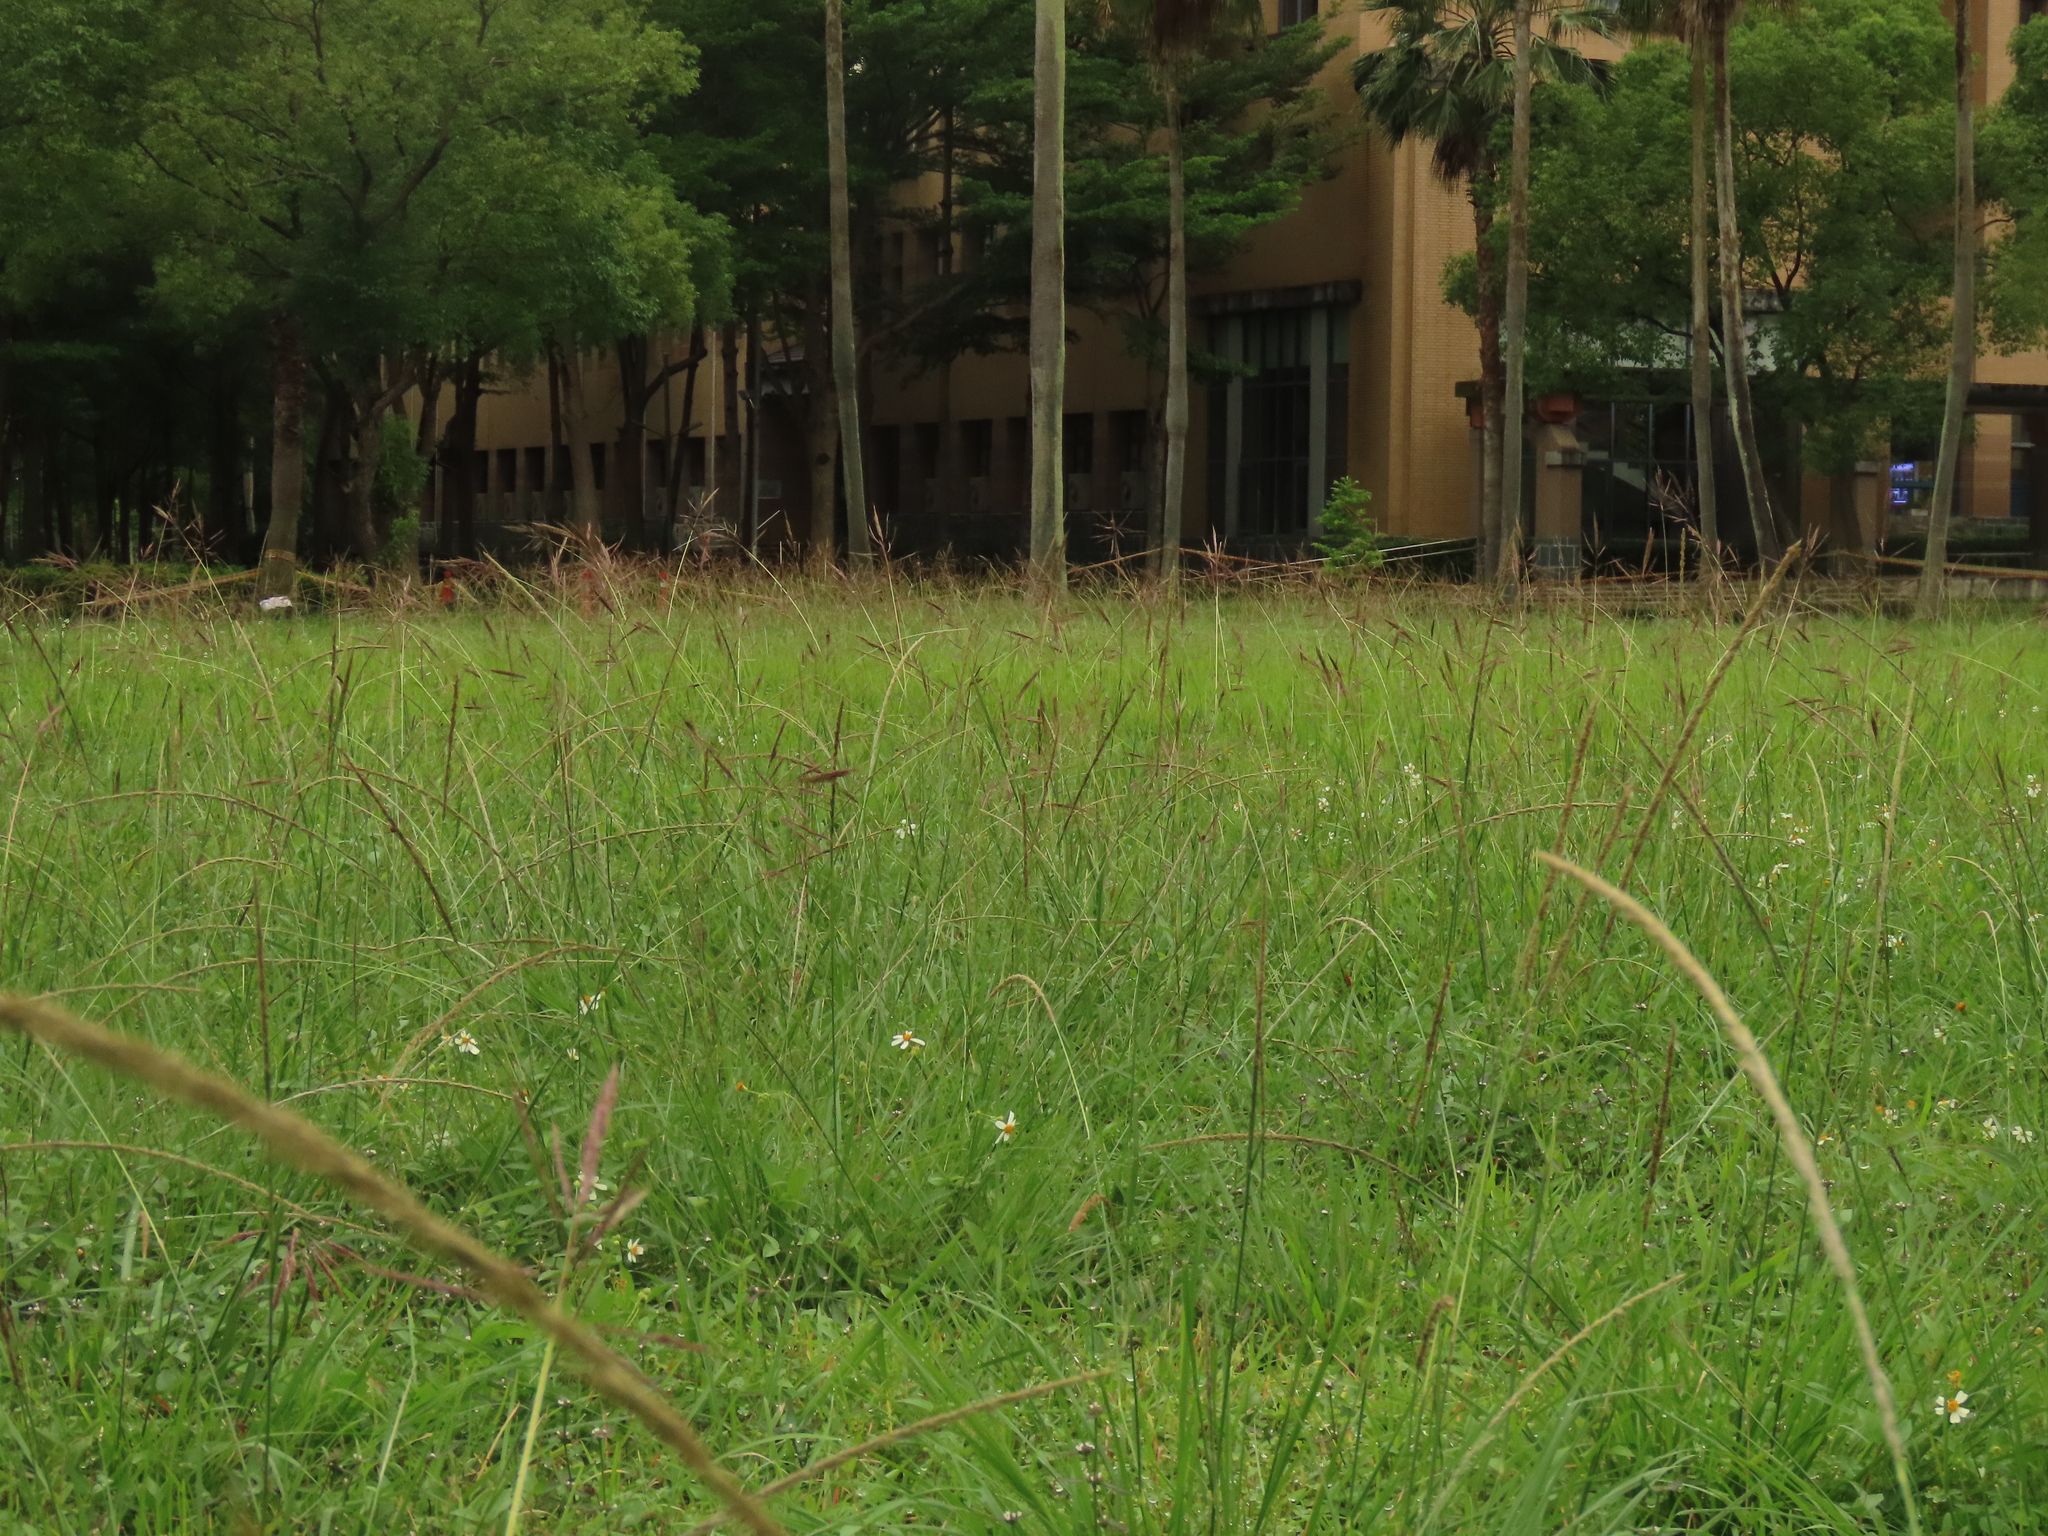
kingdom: Plantae
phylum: Tracheophyta
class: Liliopsida
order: Poales
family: Poaceae
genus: Bothriochloa
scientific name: Bothriochloa glabra
